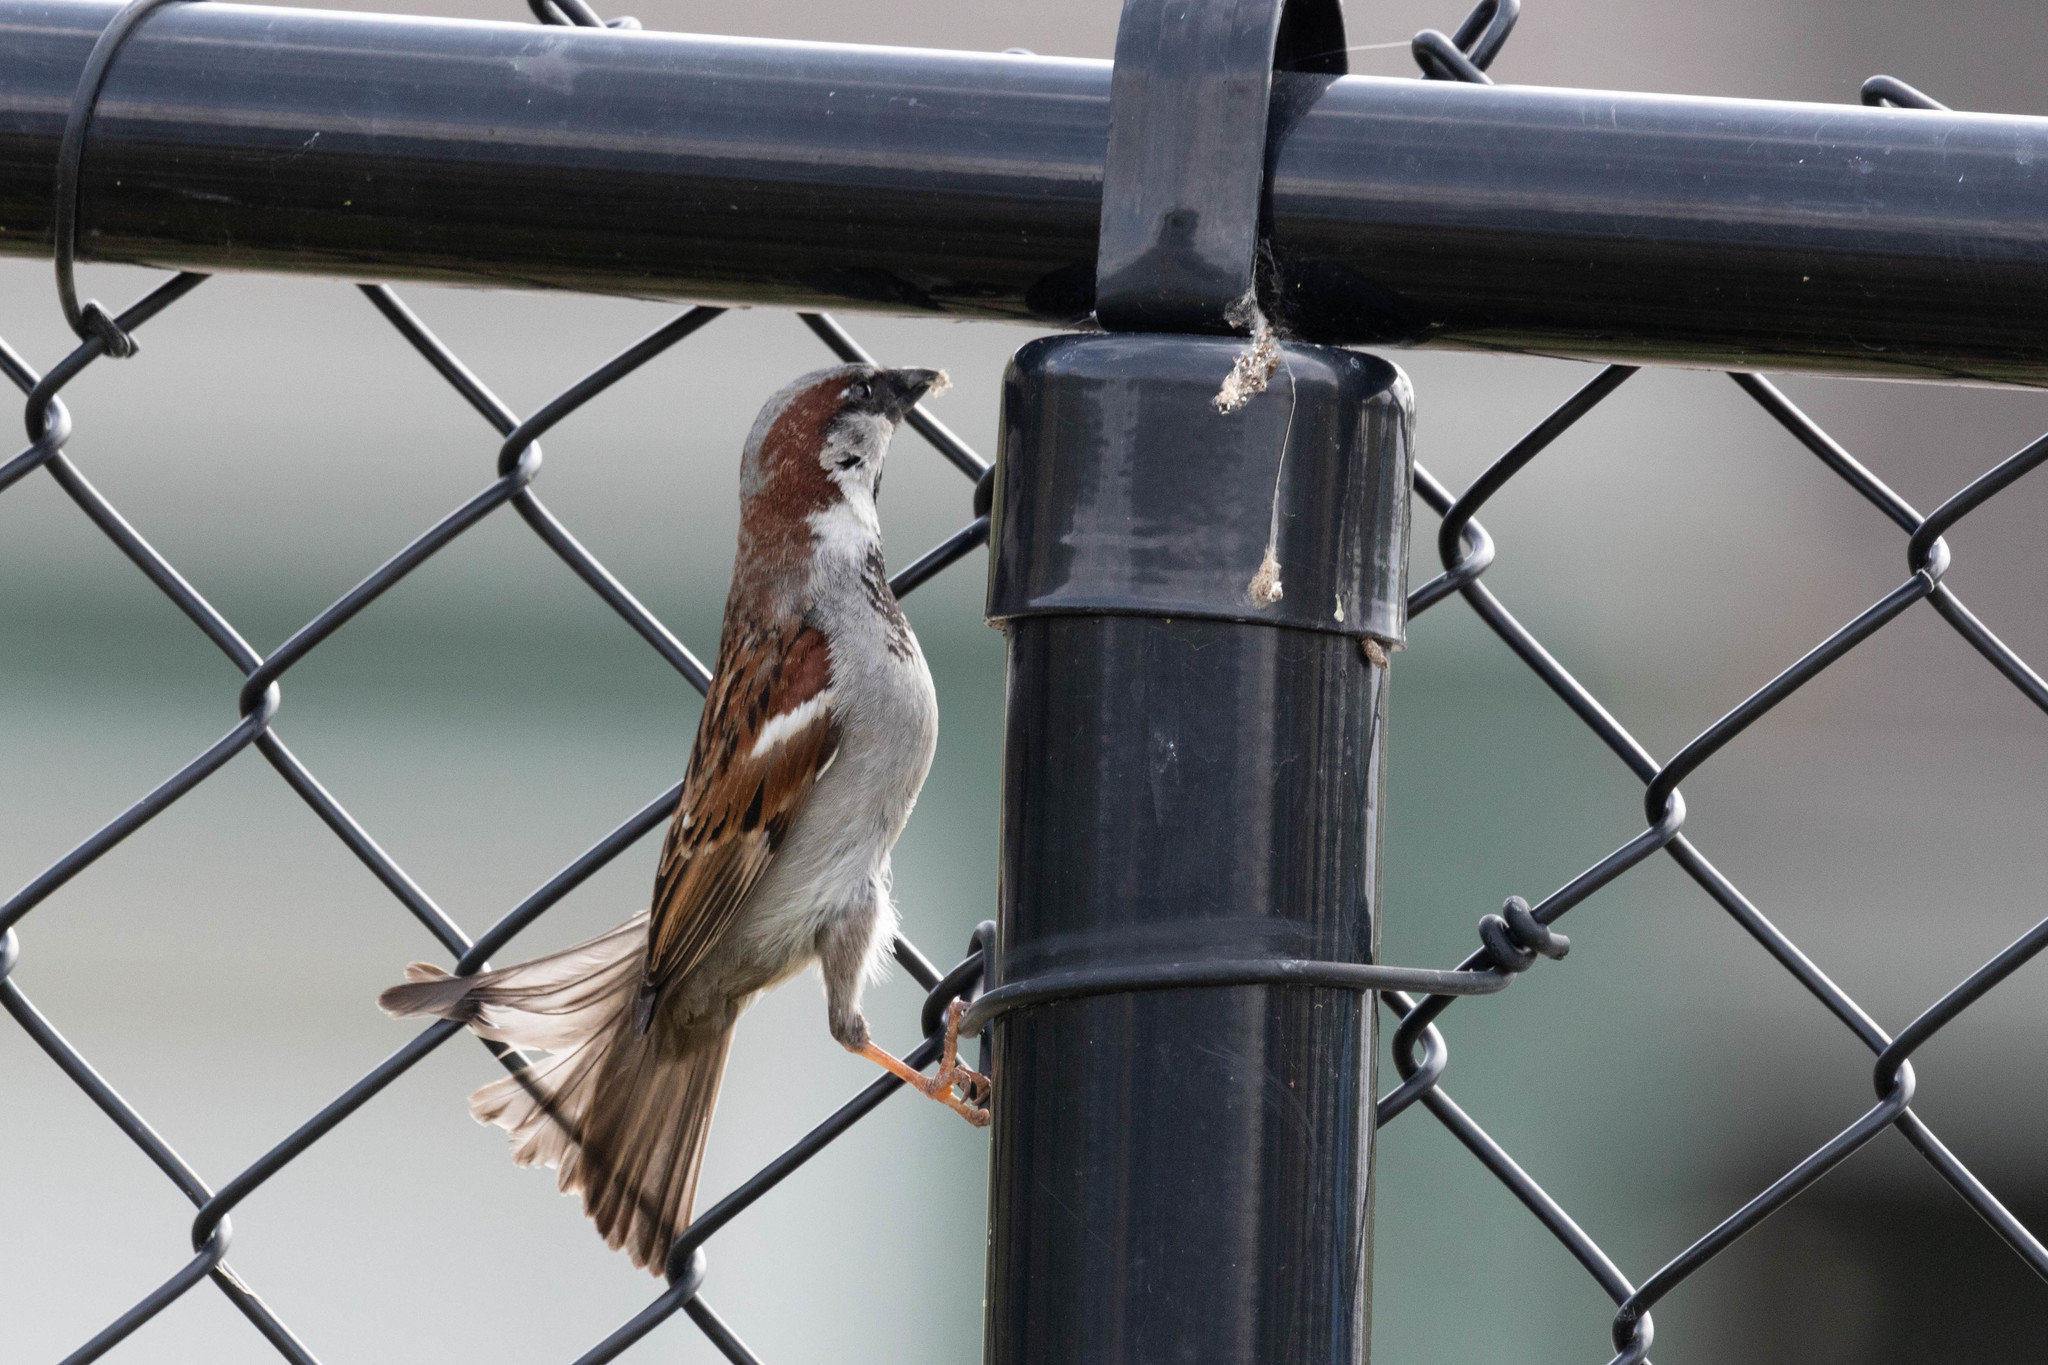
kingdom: Animalia
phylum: Chordata
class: Aves
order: Passeriformes
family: Passeridae
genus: Passer
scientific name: Passer domesticus
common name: House sparrow
